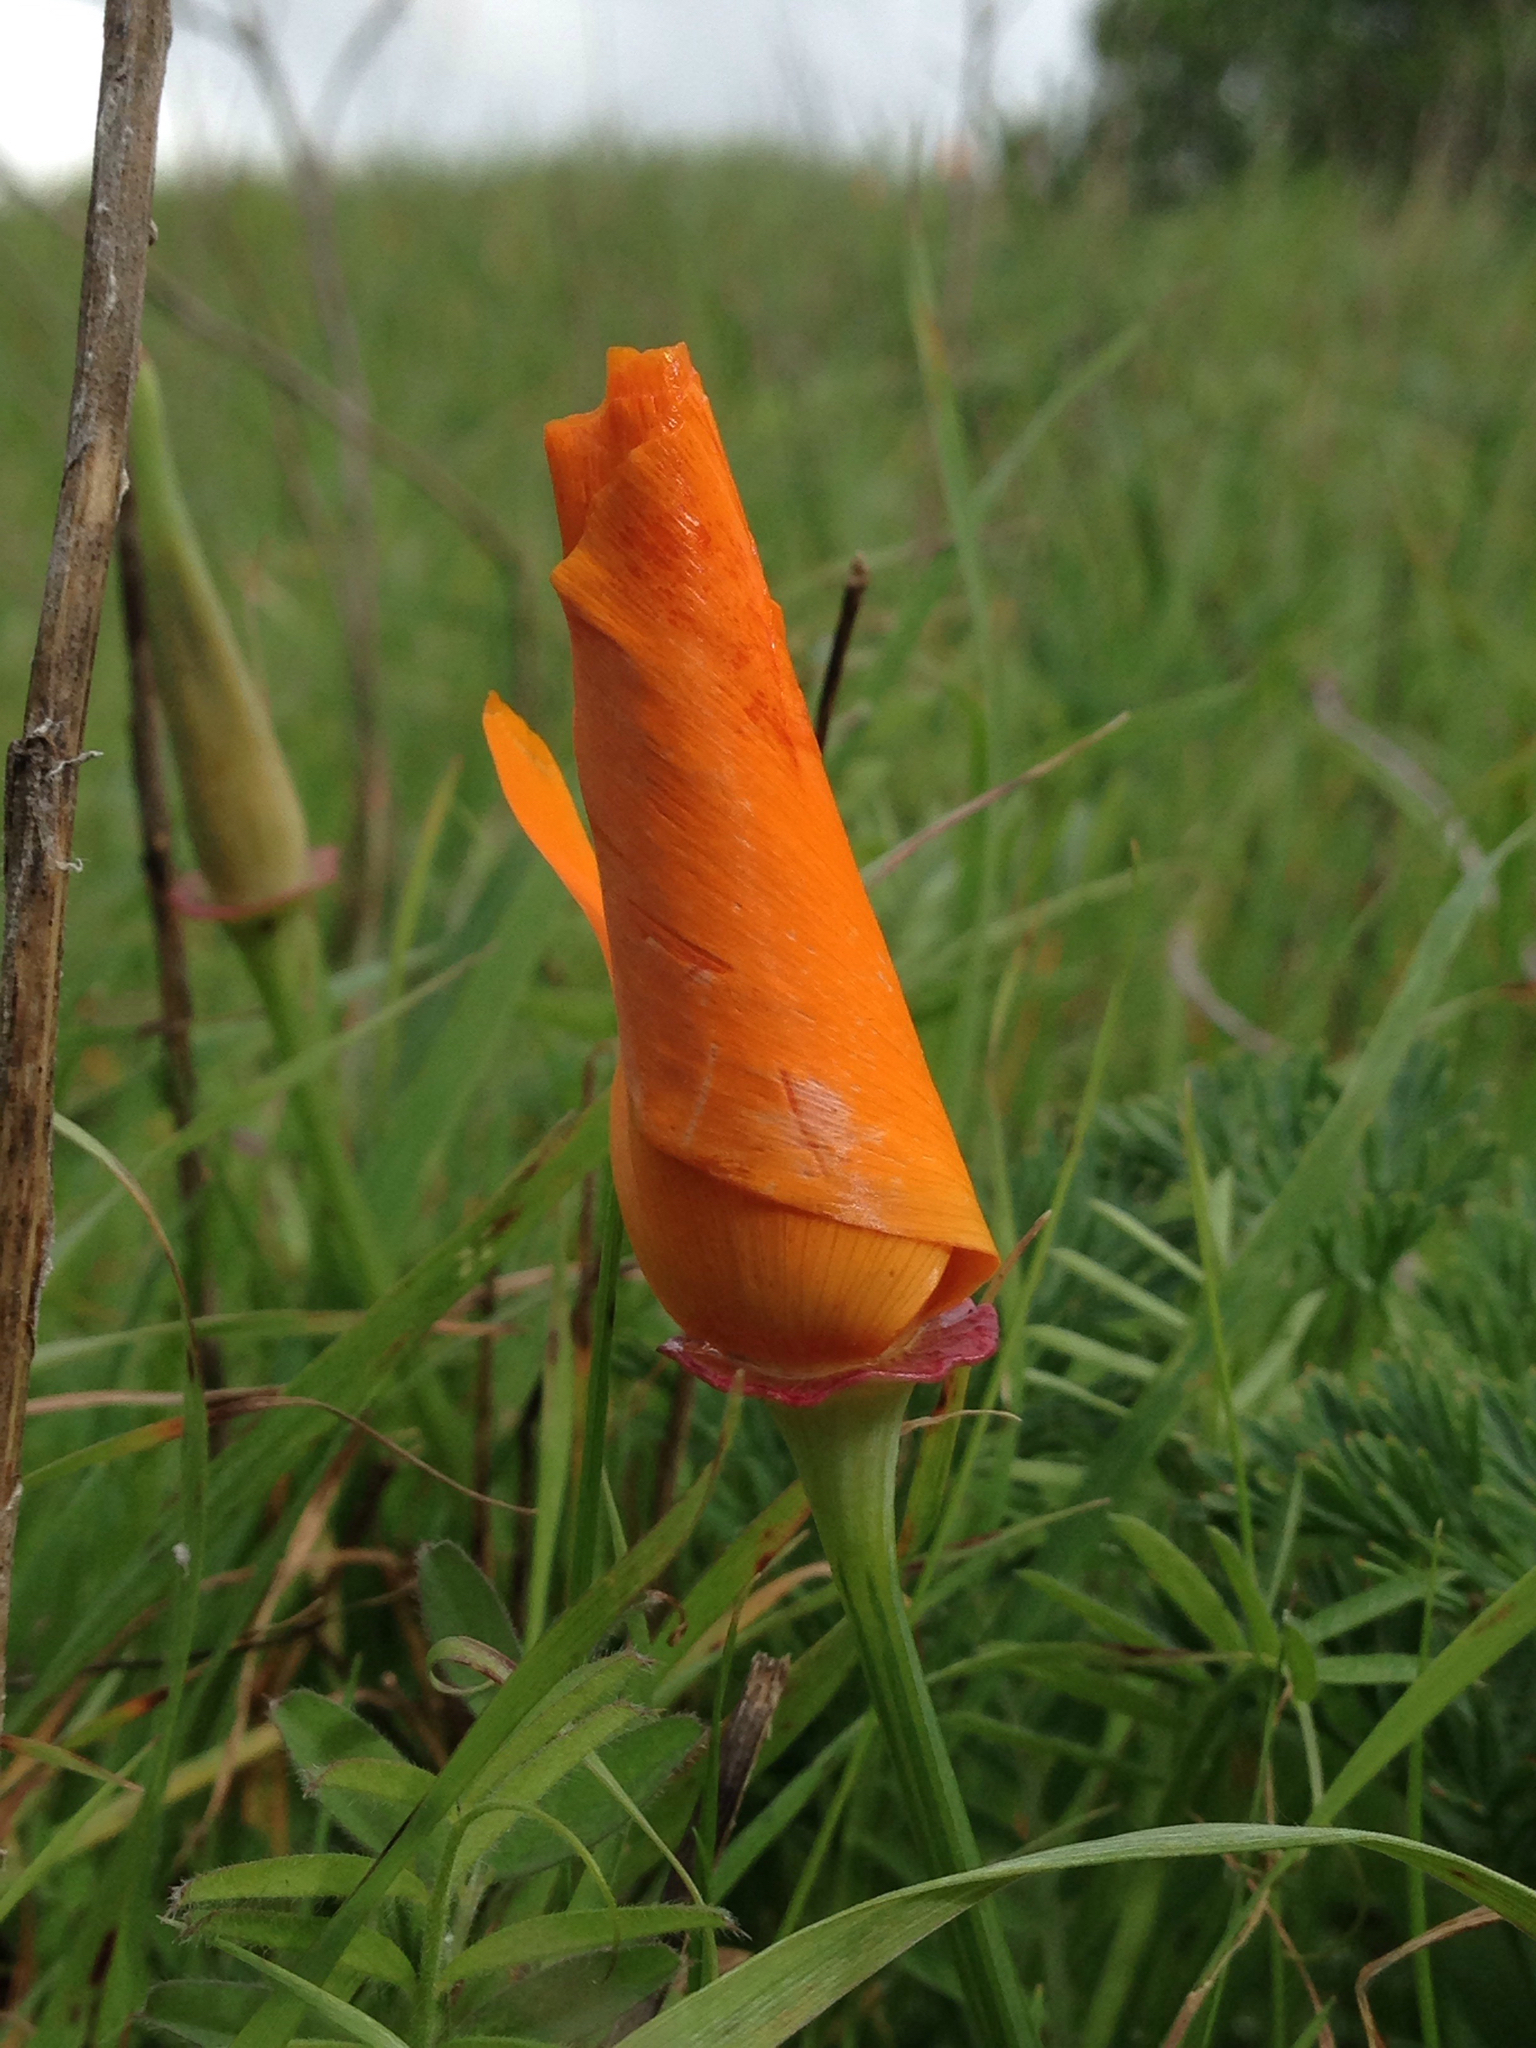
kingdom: Plantae
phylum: Tracheophyta
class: Magnoliopsida
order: Ranunculales
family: Papaveraceae
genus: Eschscholzia
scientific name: Eschscholzia californica
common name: California poppy
